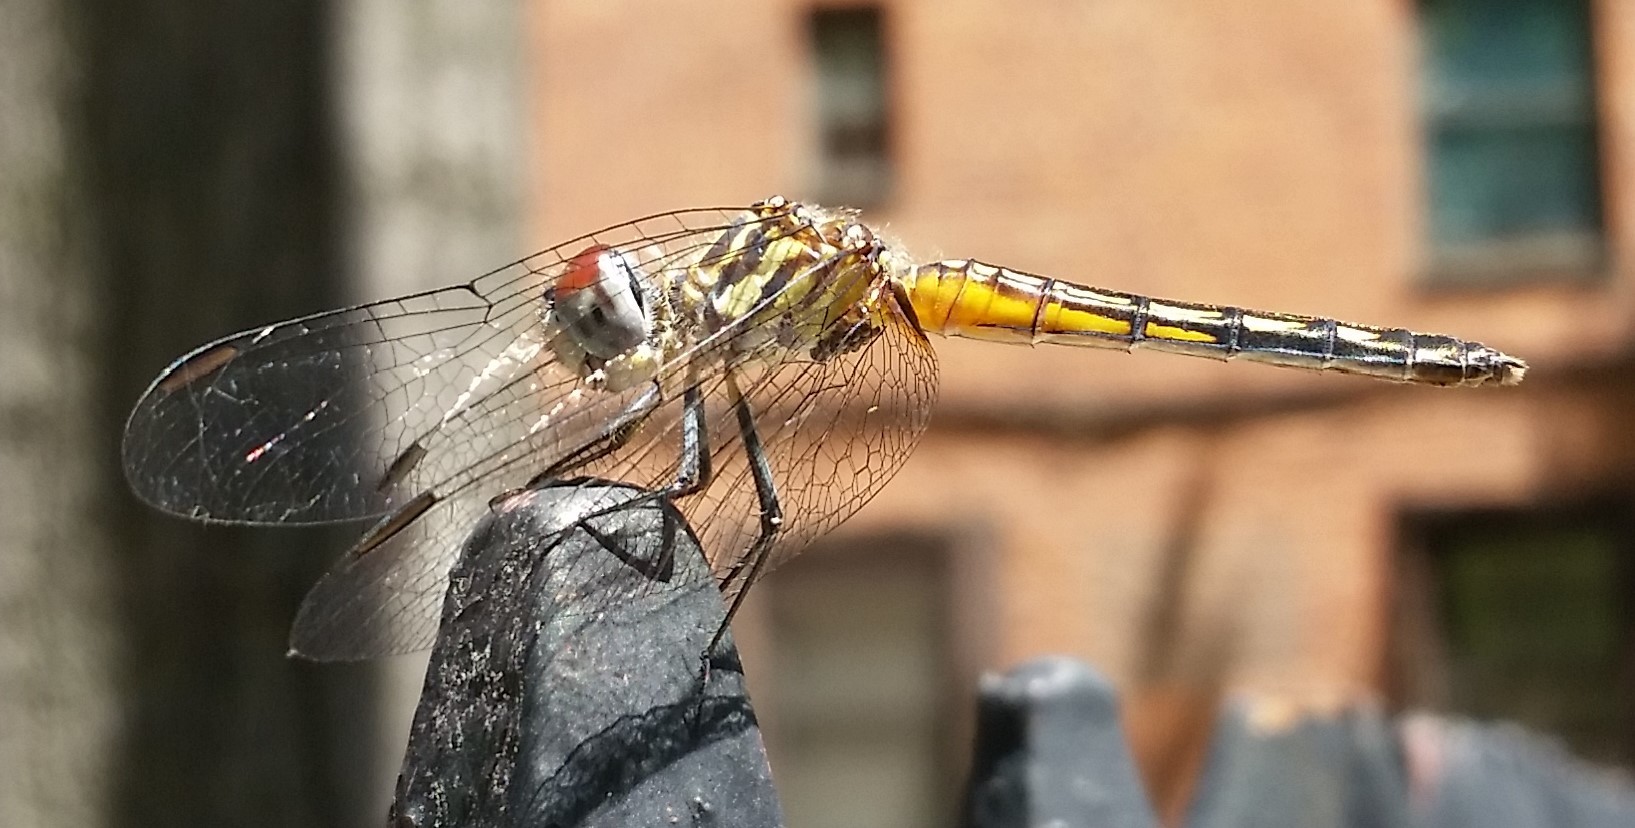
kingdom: Animalia
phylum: Arthropoda
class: Insecta
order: Odonata
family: Libellulidae
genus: Pachydiplax
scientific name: Pachydiplax longipennis
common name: Blue dasher
